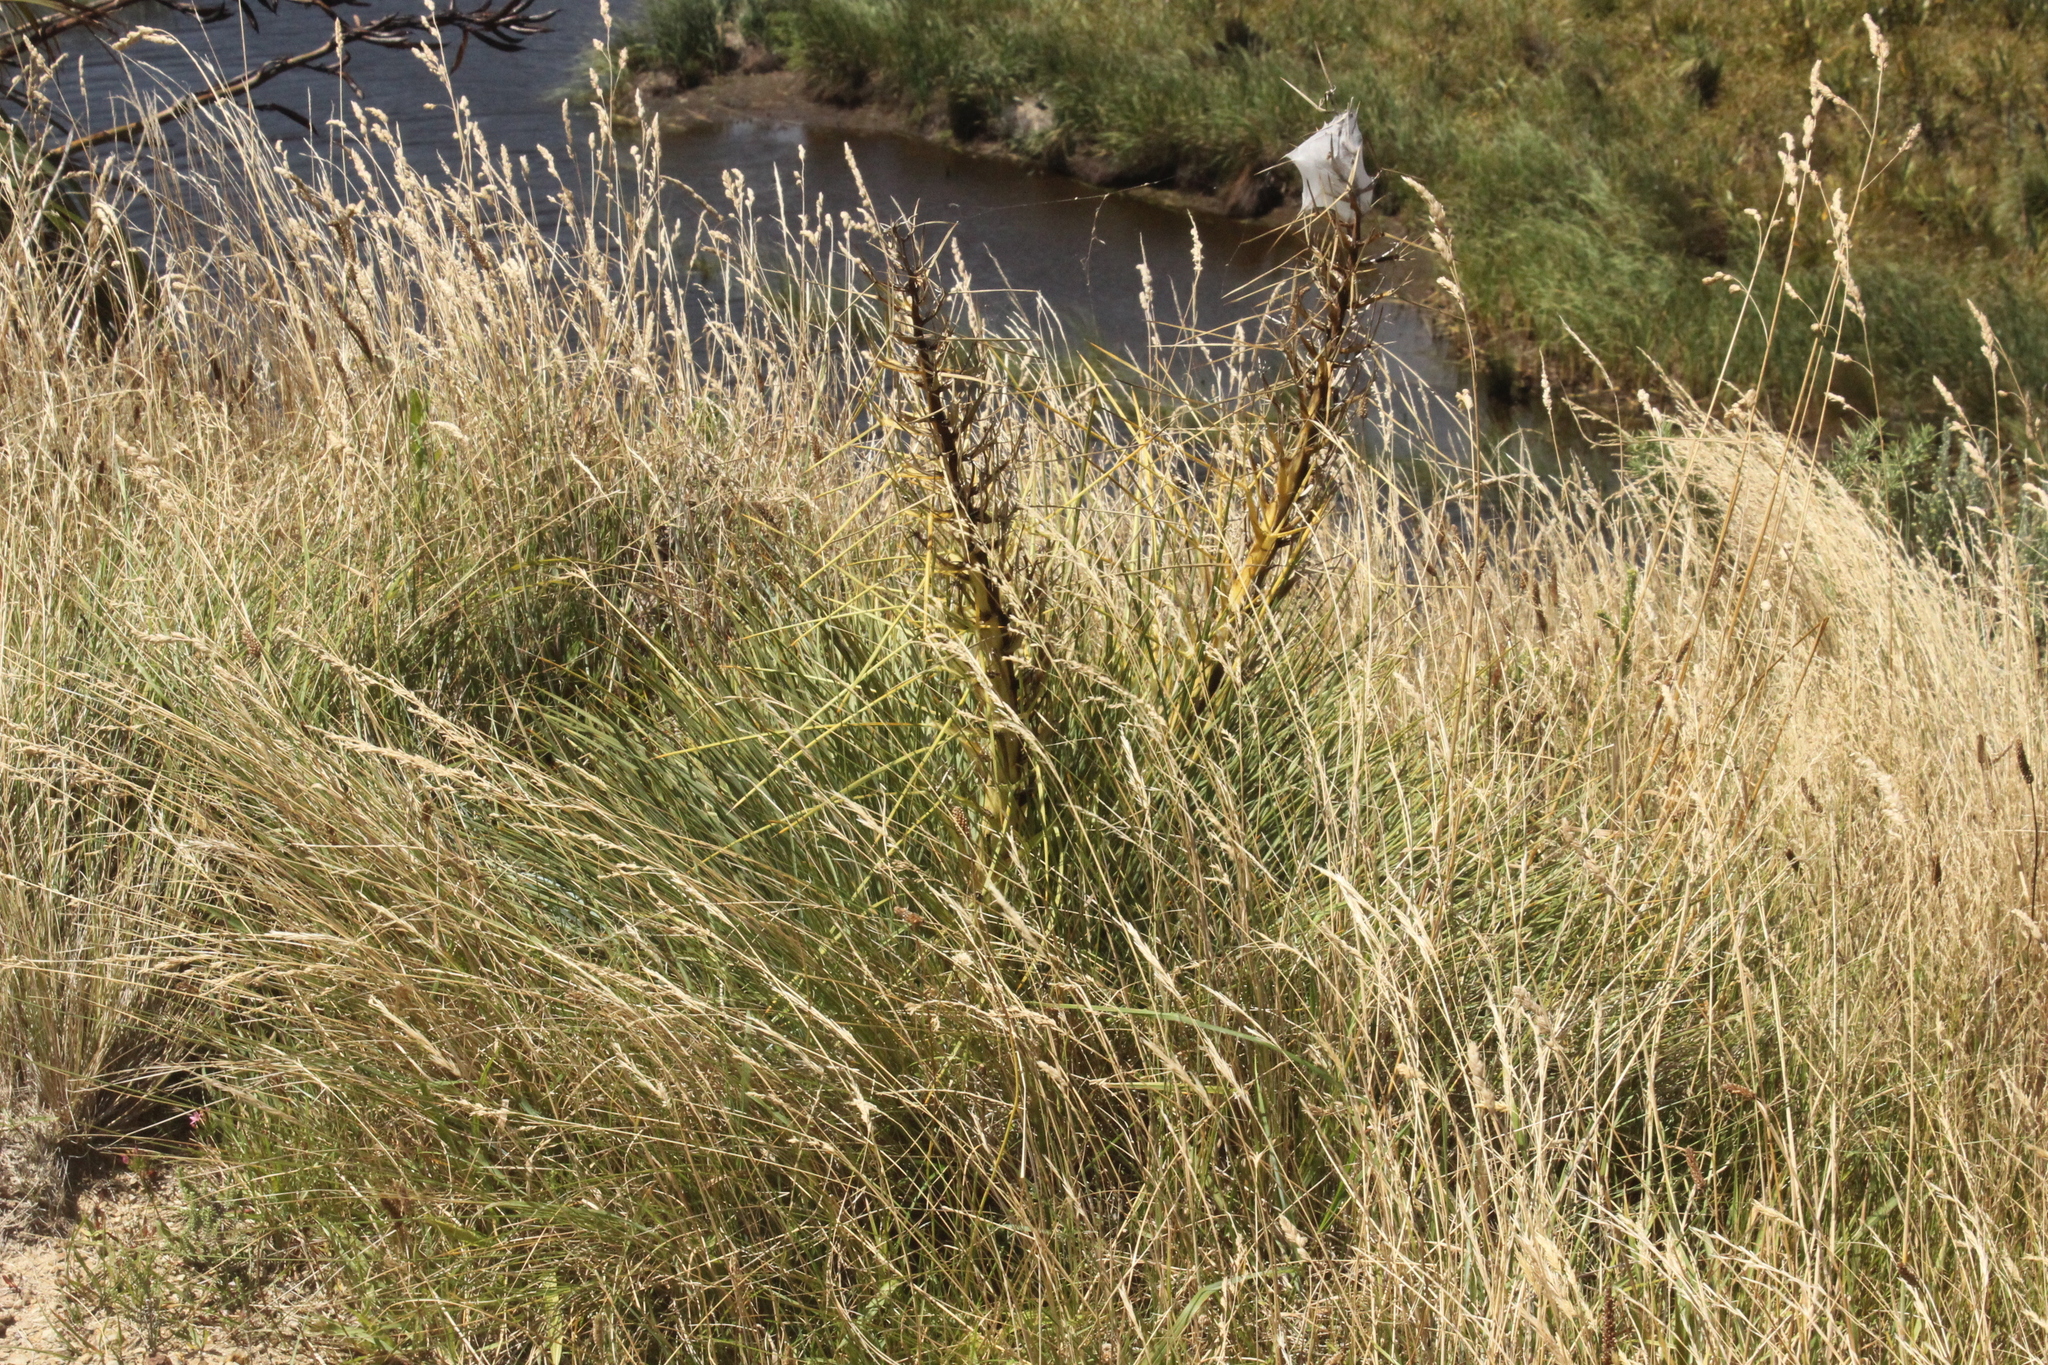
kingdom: Plantae
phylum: Tracheophyta
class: Magnoliopsida
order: Apiales
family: Apiaceae
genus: Aciphylla
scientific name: Aciphylla squarrosa
